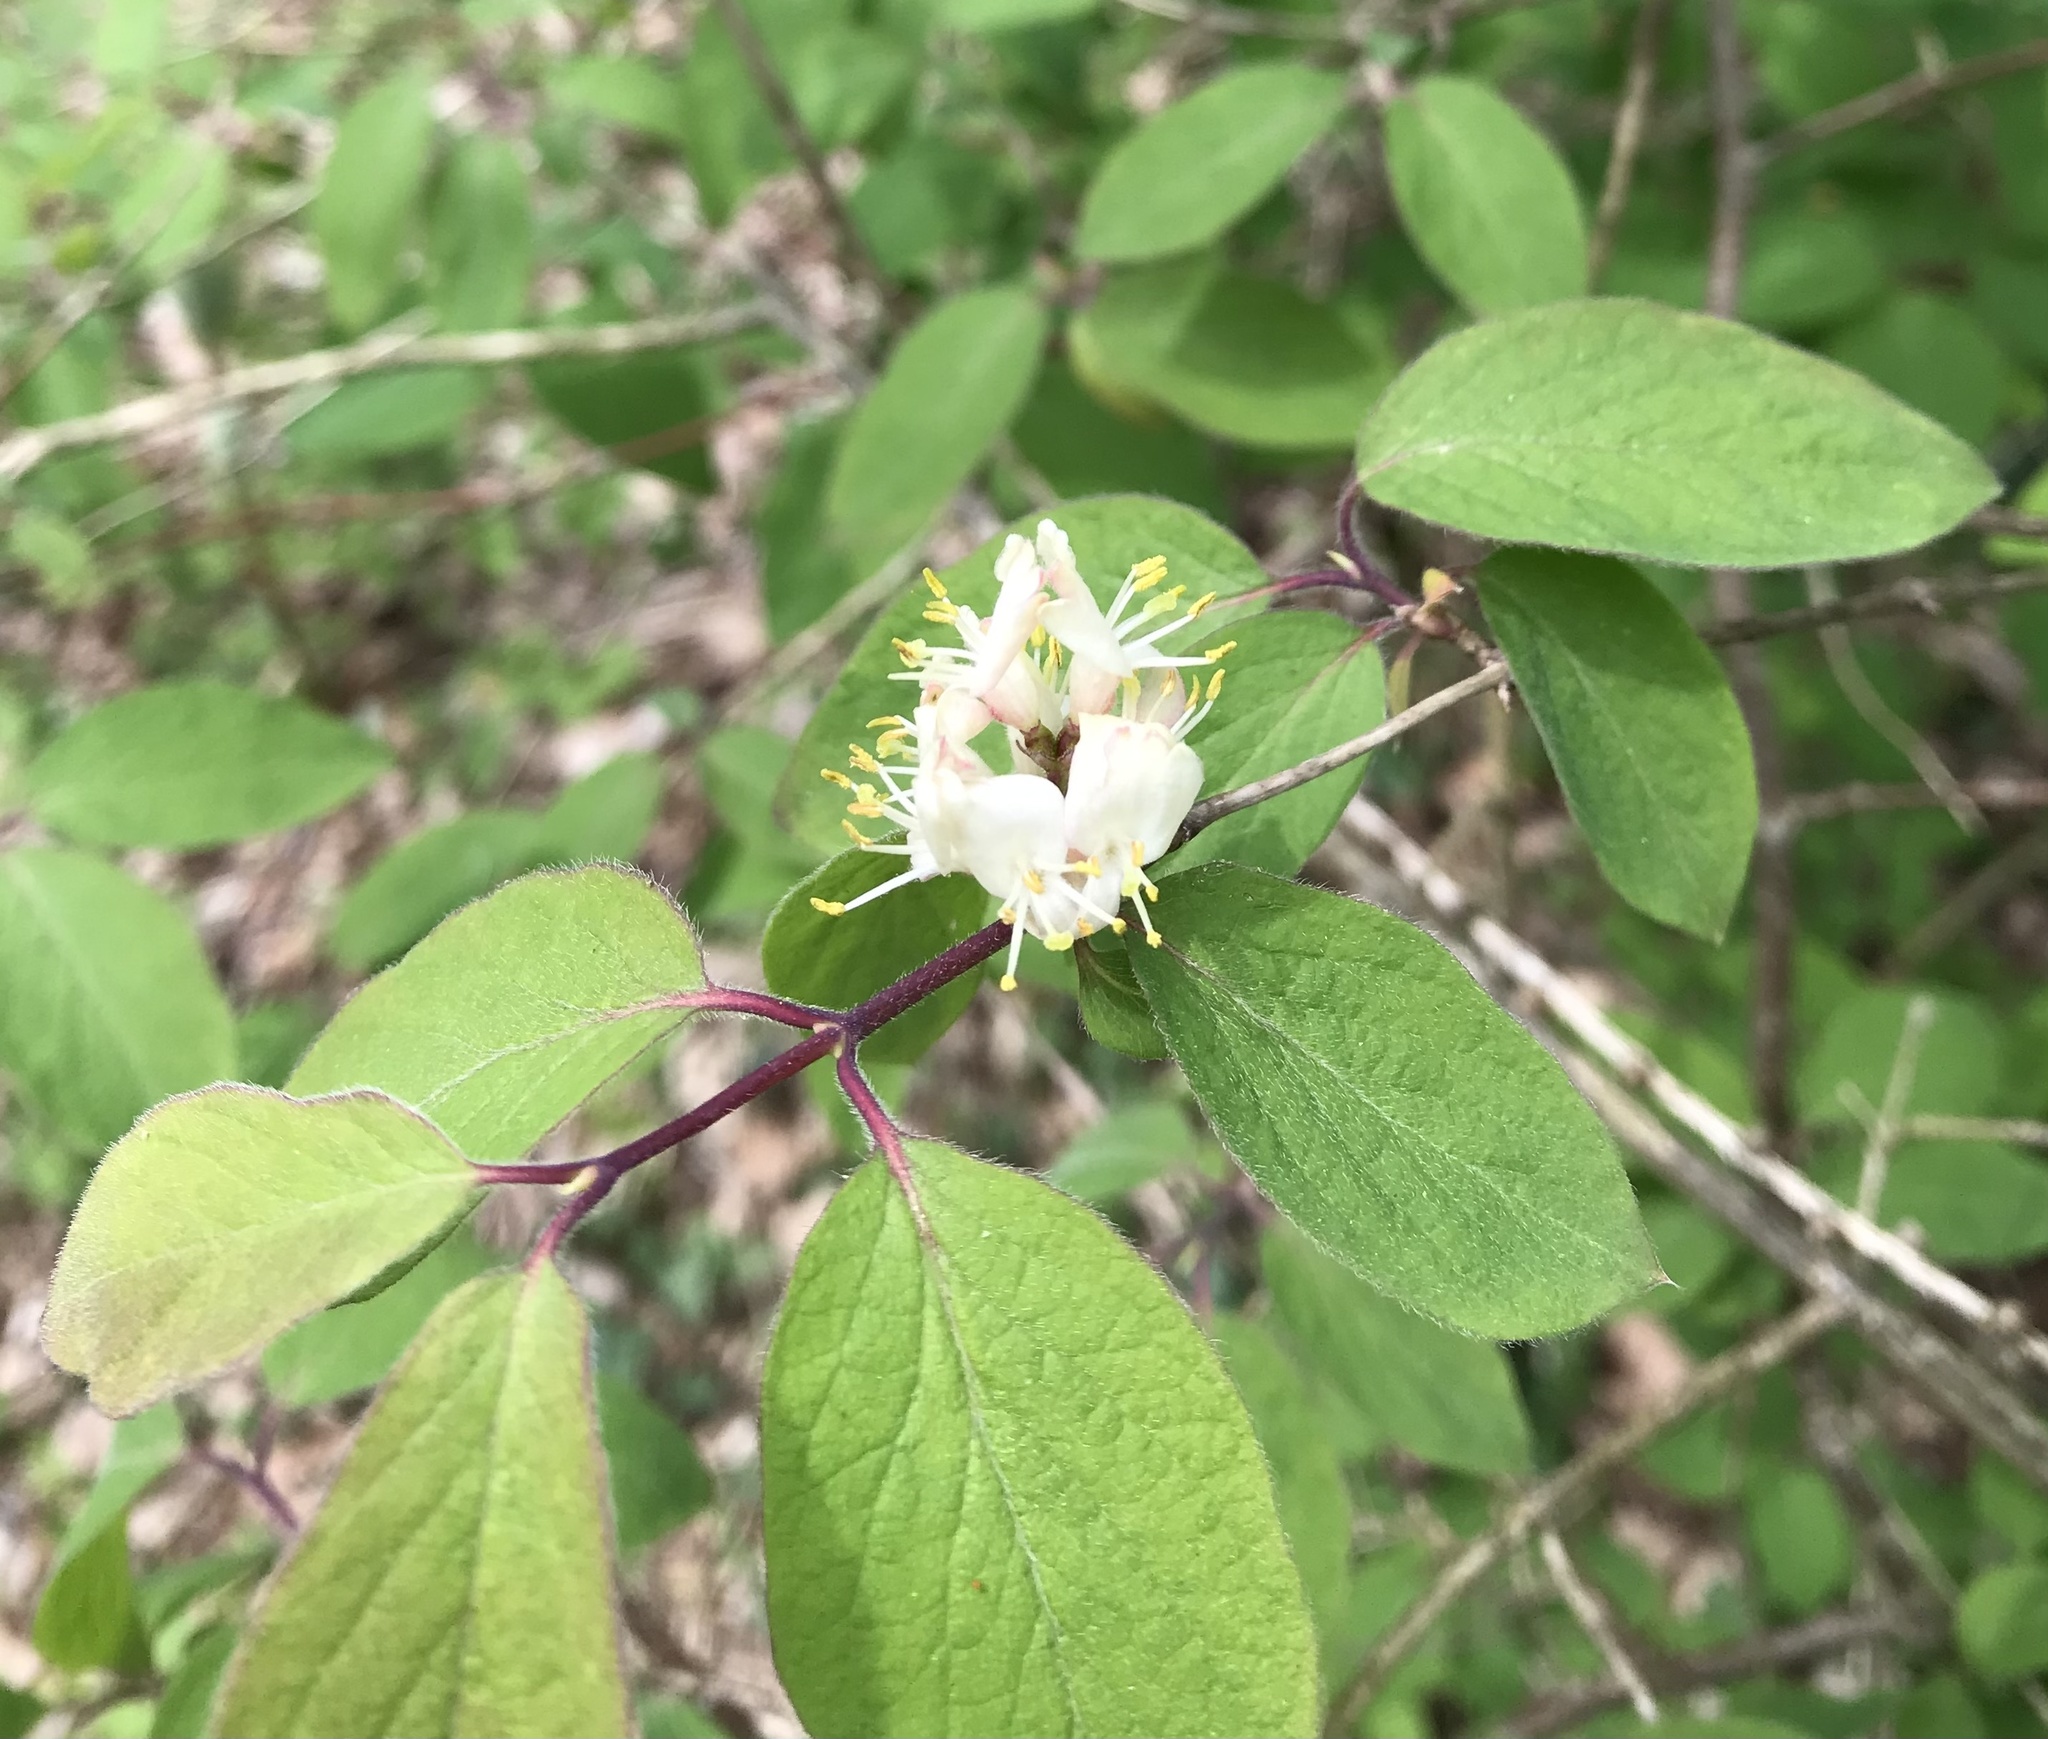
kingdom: Plantae
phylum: Tracheophyta
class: Magnoliopsida
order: Dipsacales
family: Caprifoliaceae
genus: Lonicera
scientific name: Lonicera xylosteum
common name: Fly honeysuckle
